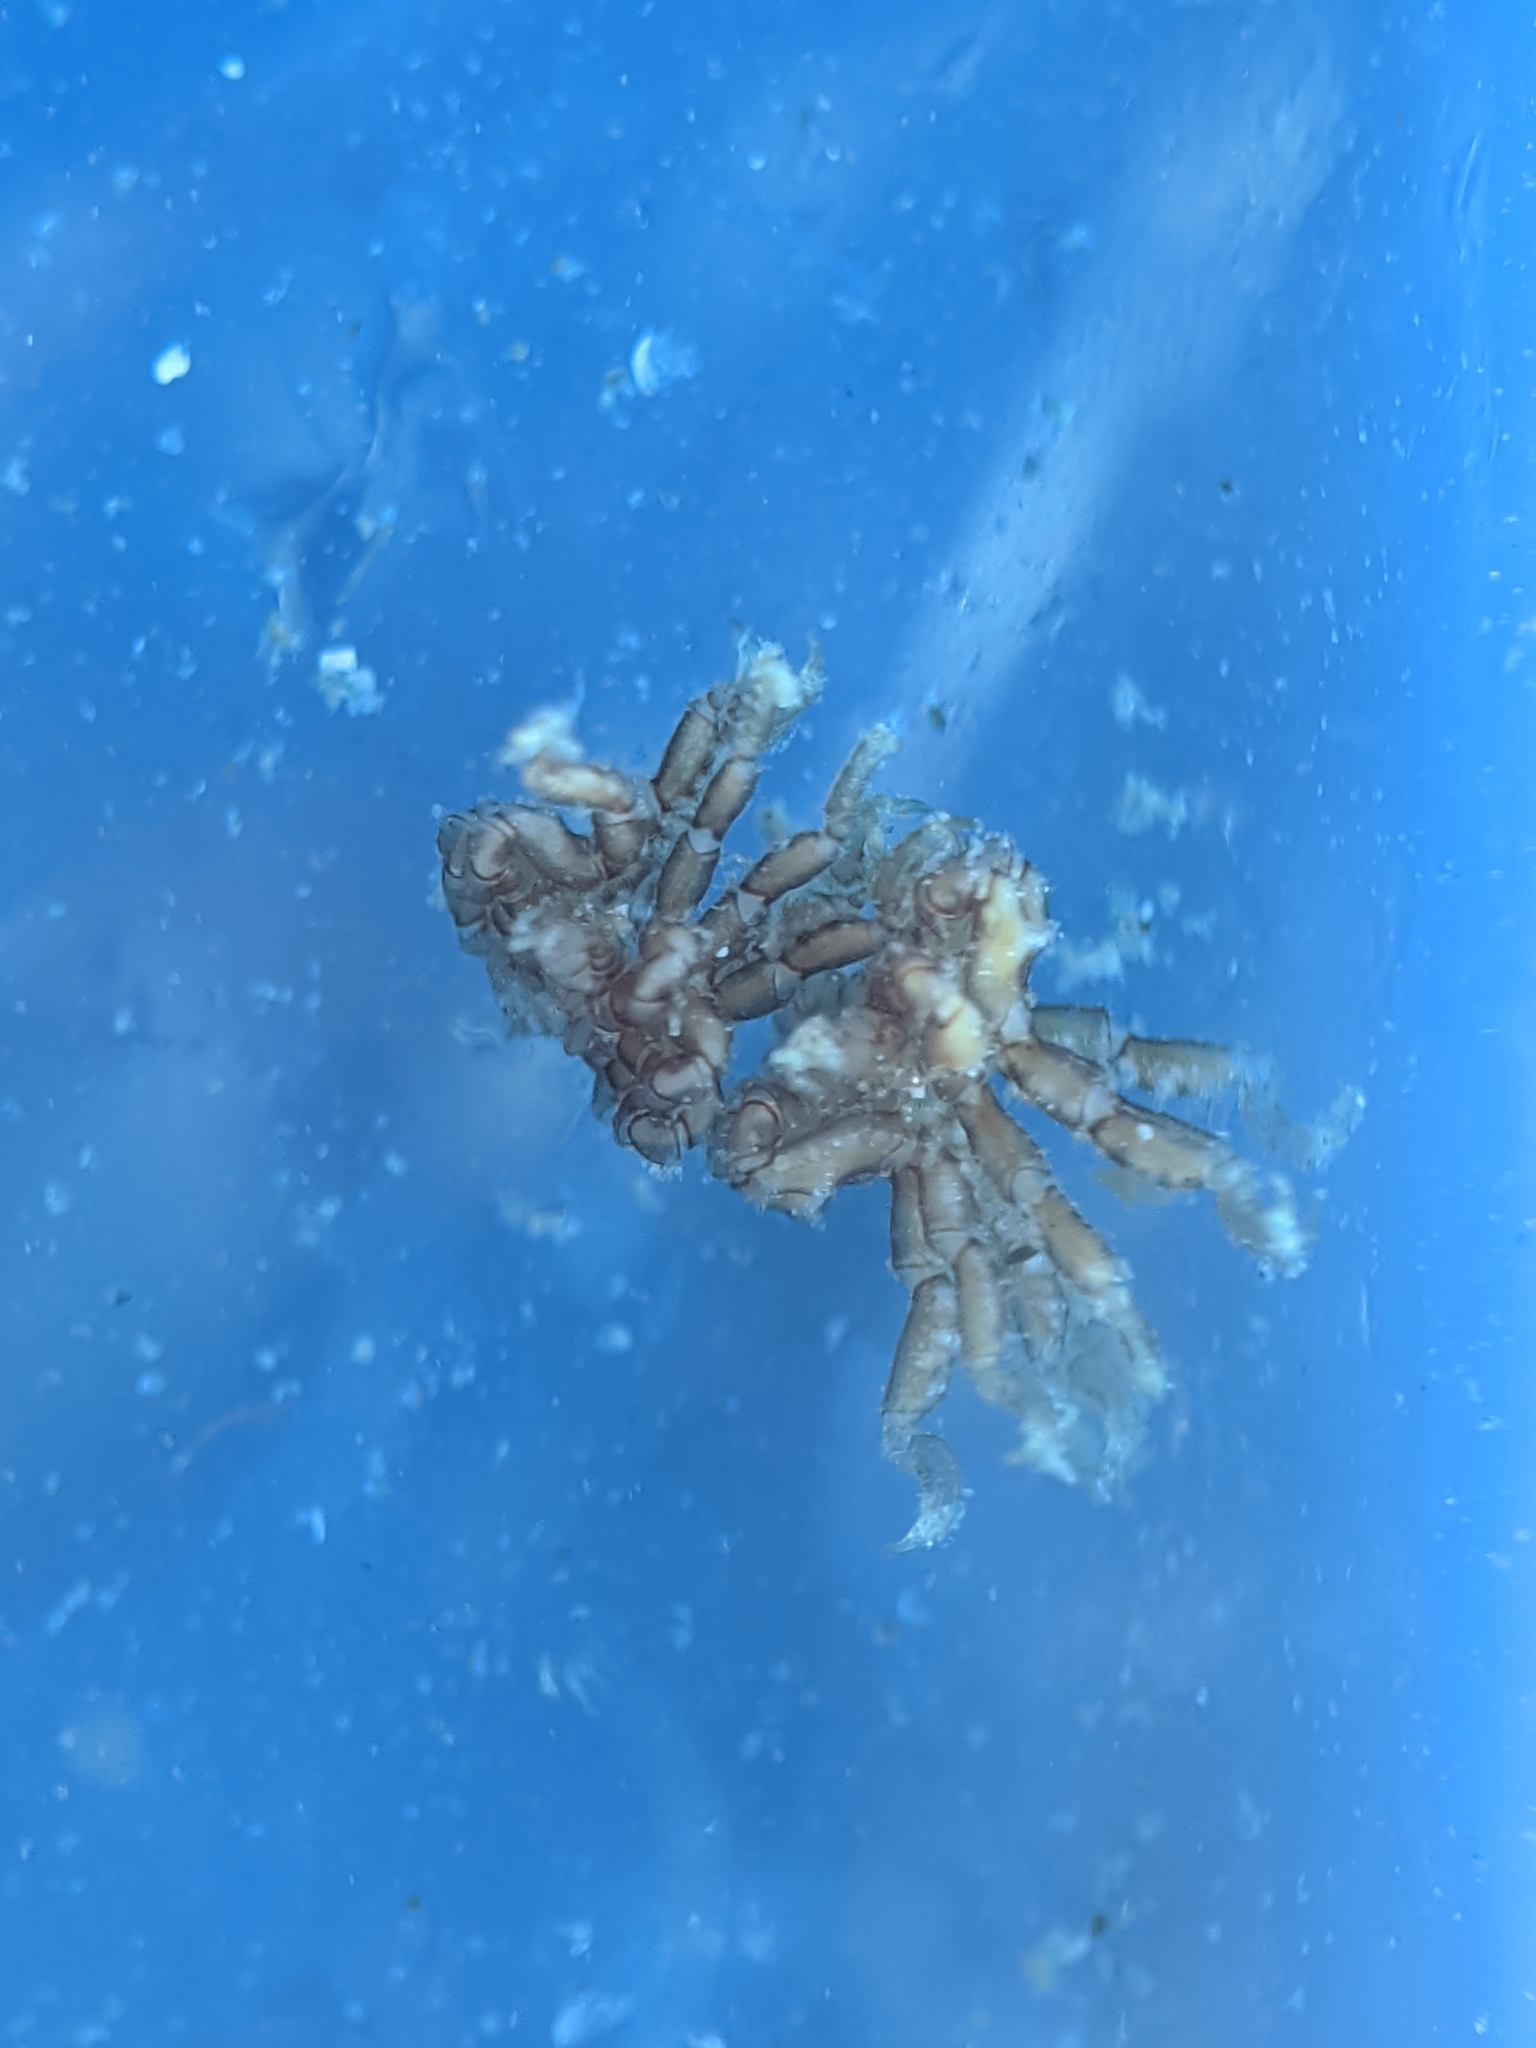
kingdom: Animalia
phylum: Arthropoda
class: Pycnogonida
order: Pantopoda
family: Ammotheidae
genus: Tanystylum
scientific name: Tanystylum californicum
